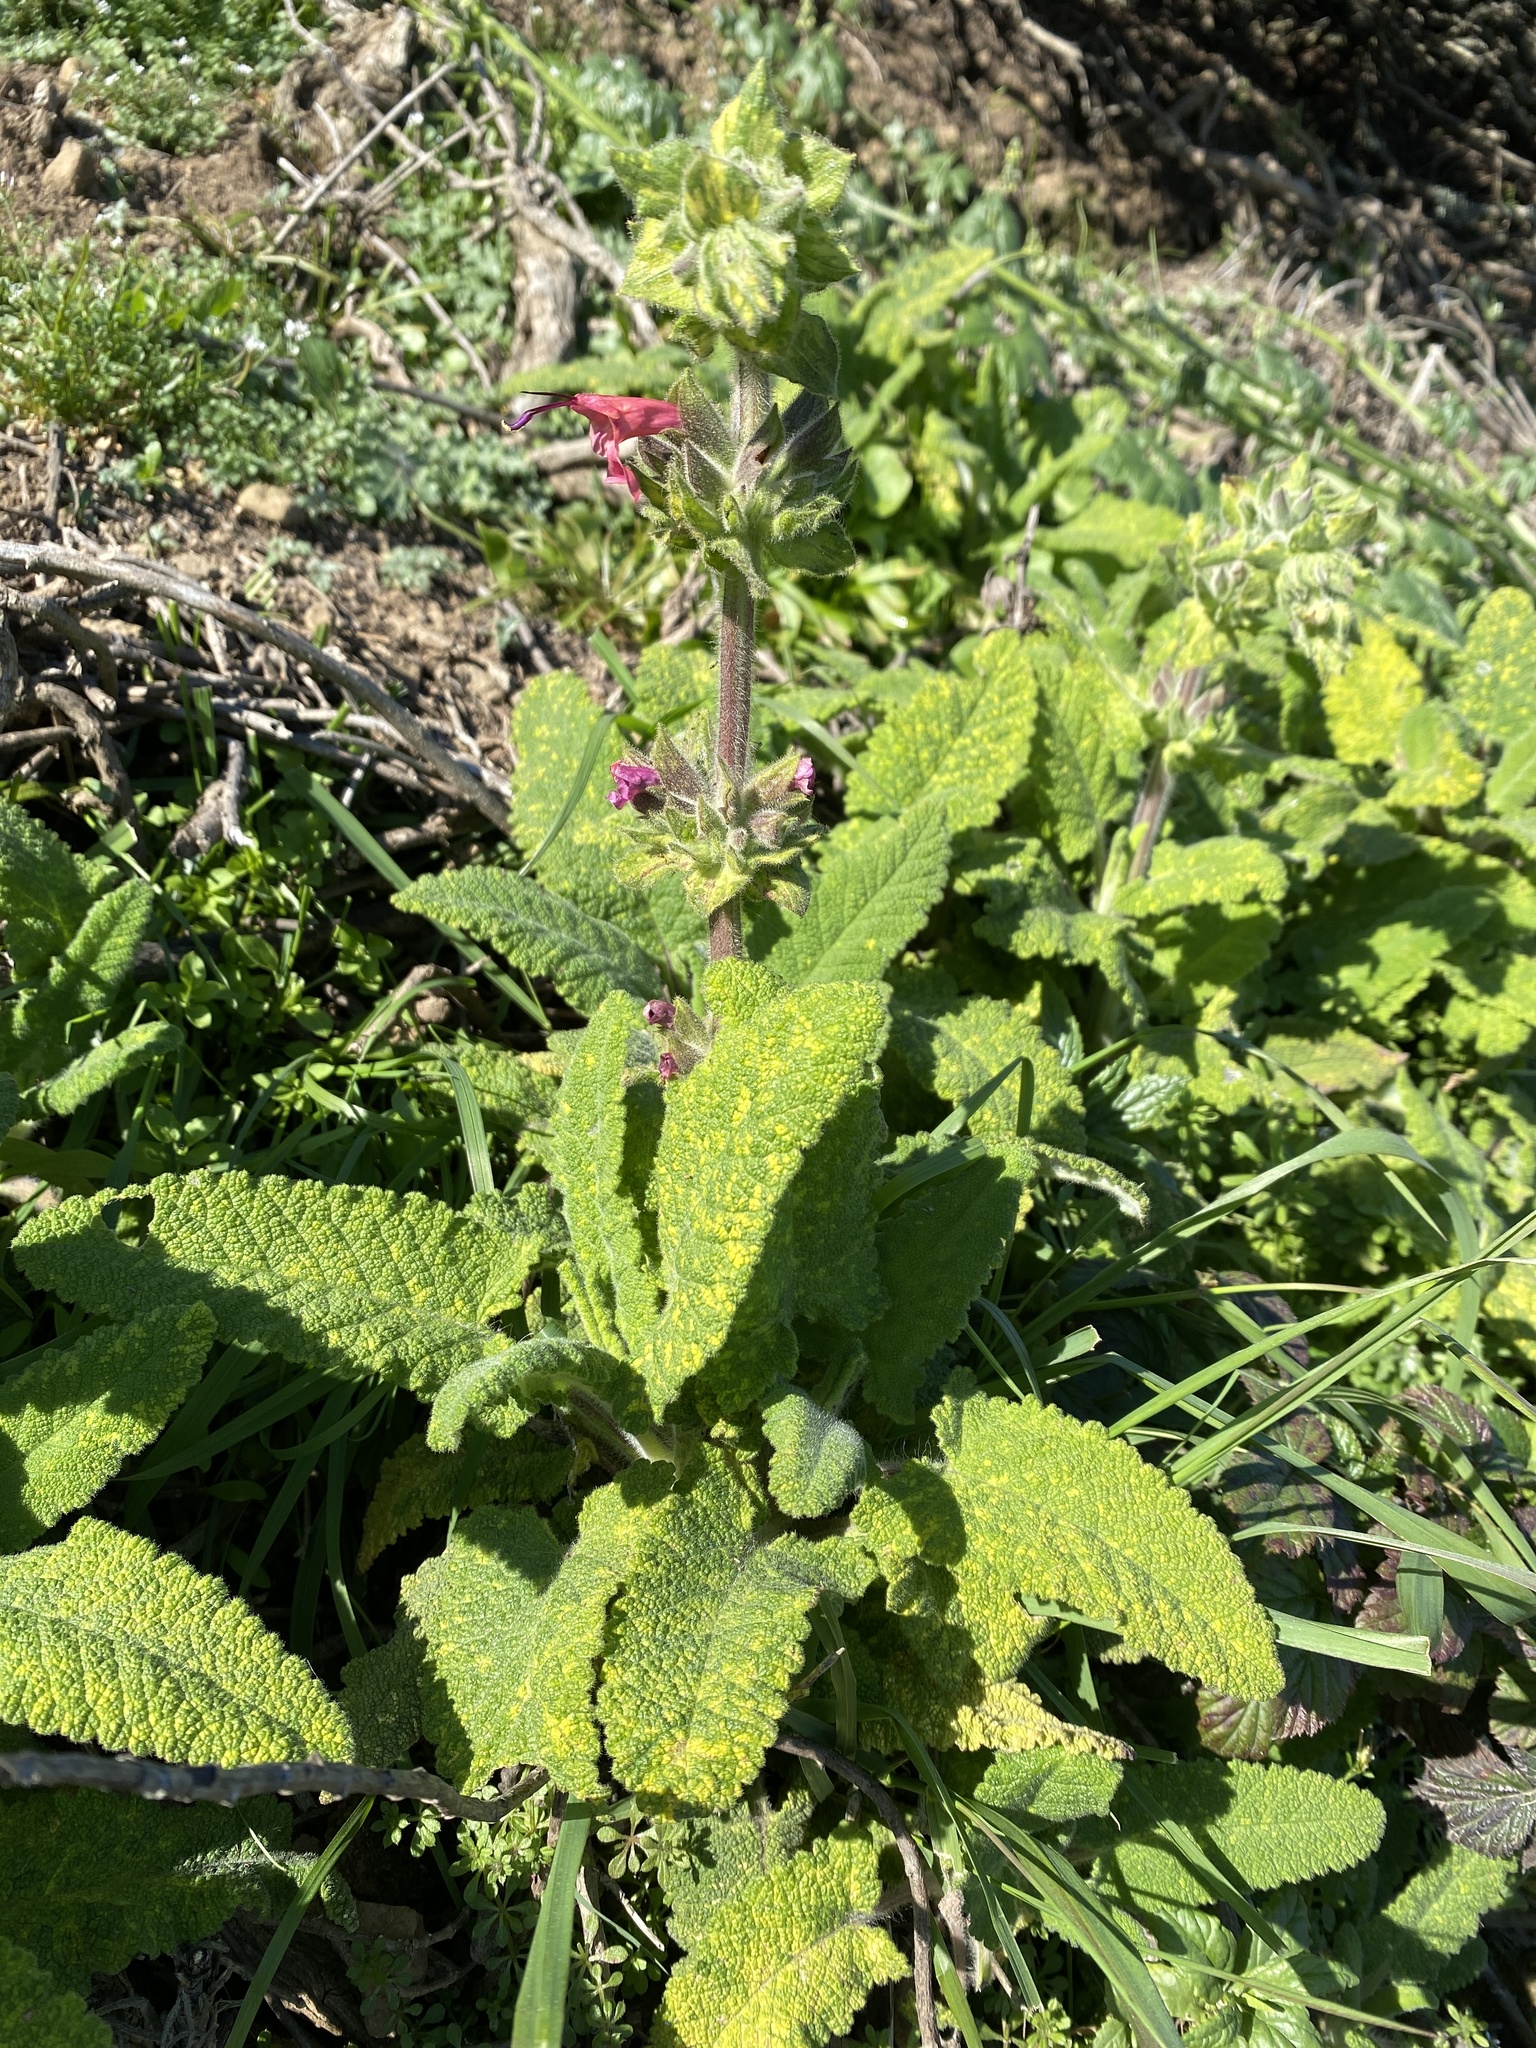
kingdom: Plantae
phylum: Tracheophyta
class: Magnoliopsida
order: Lamiales
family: Lamiaceae
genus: Salvia
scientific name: Salvia spathacea
